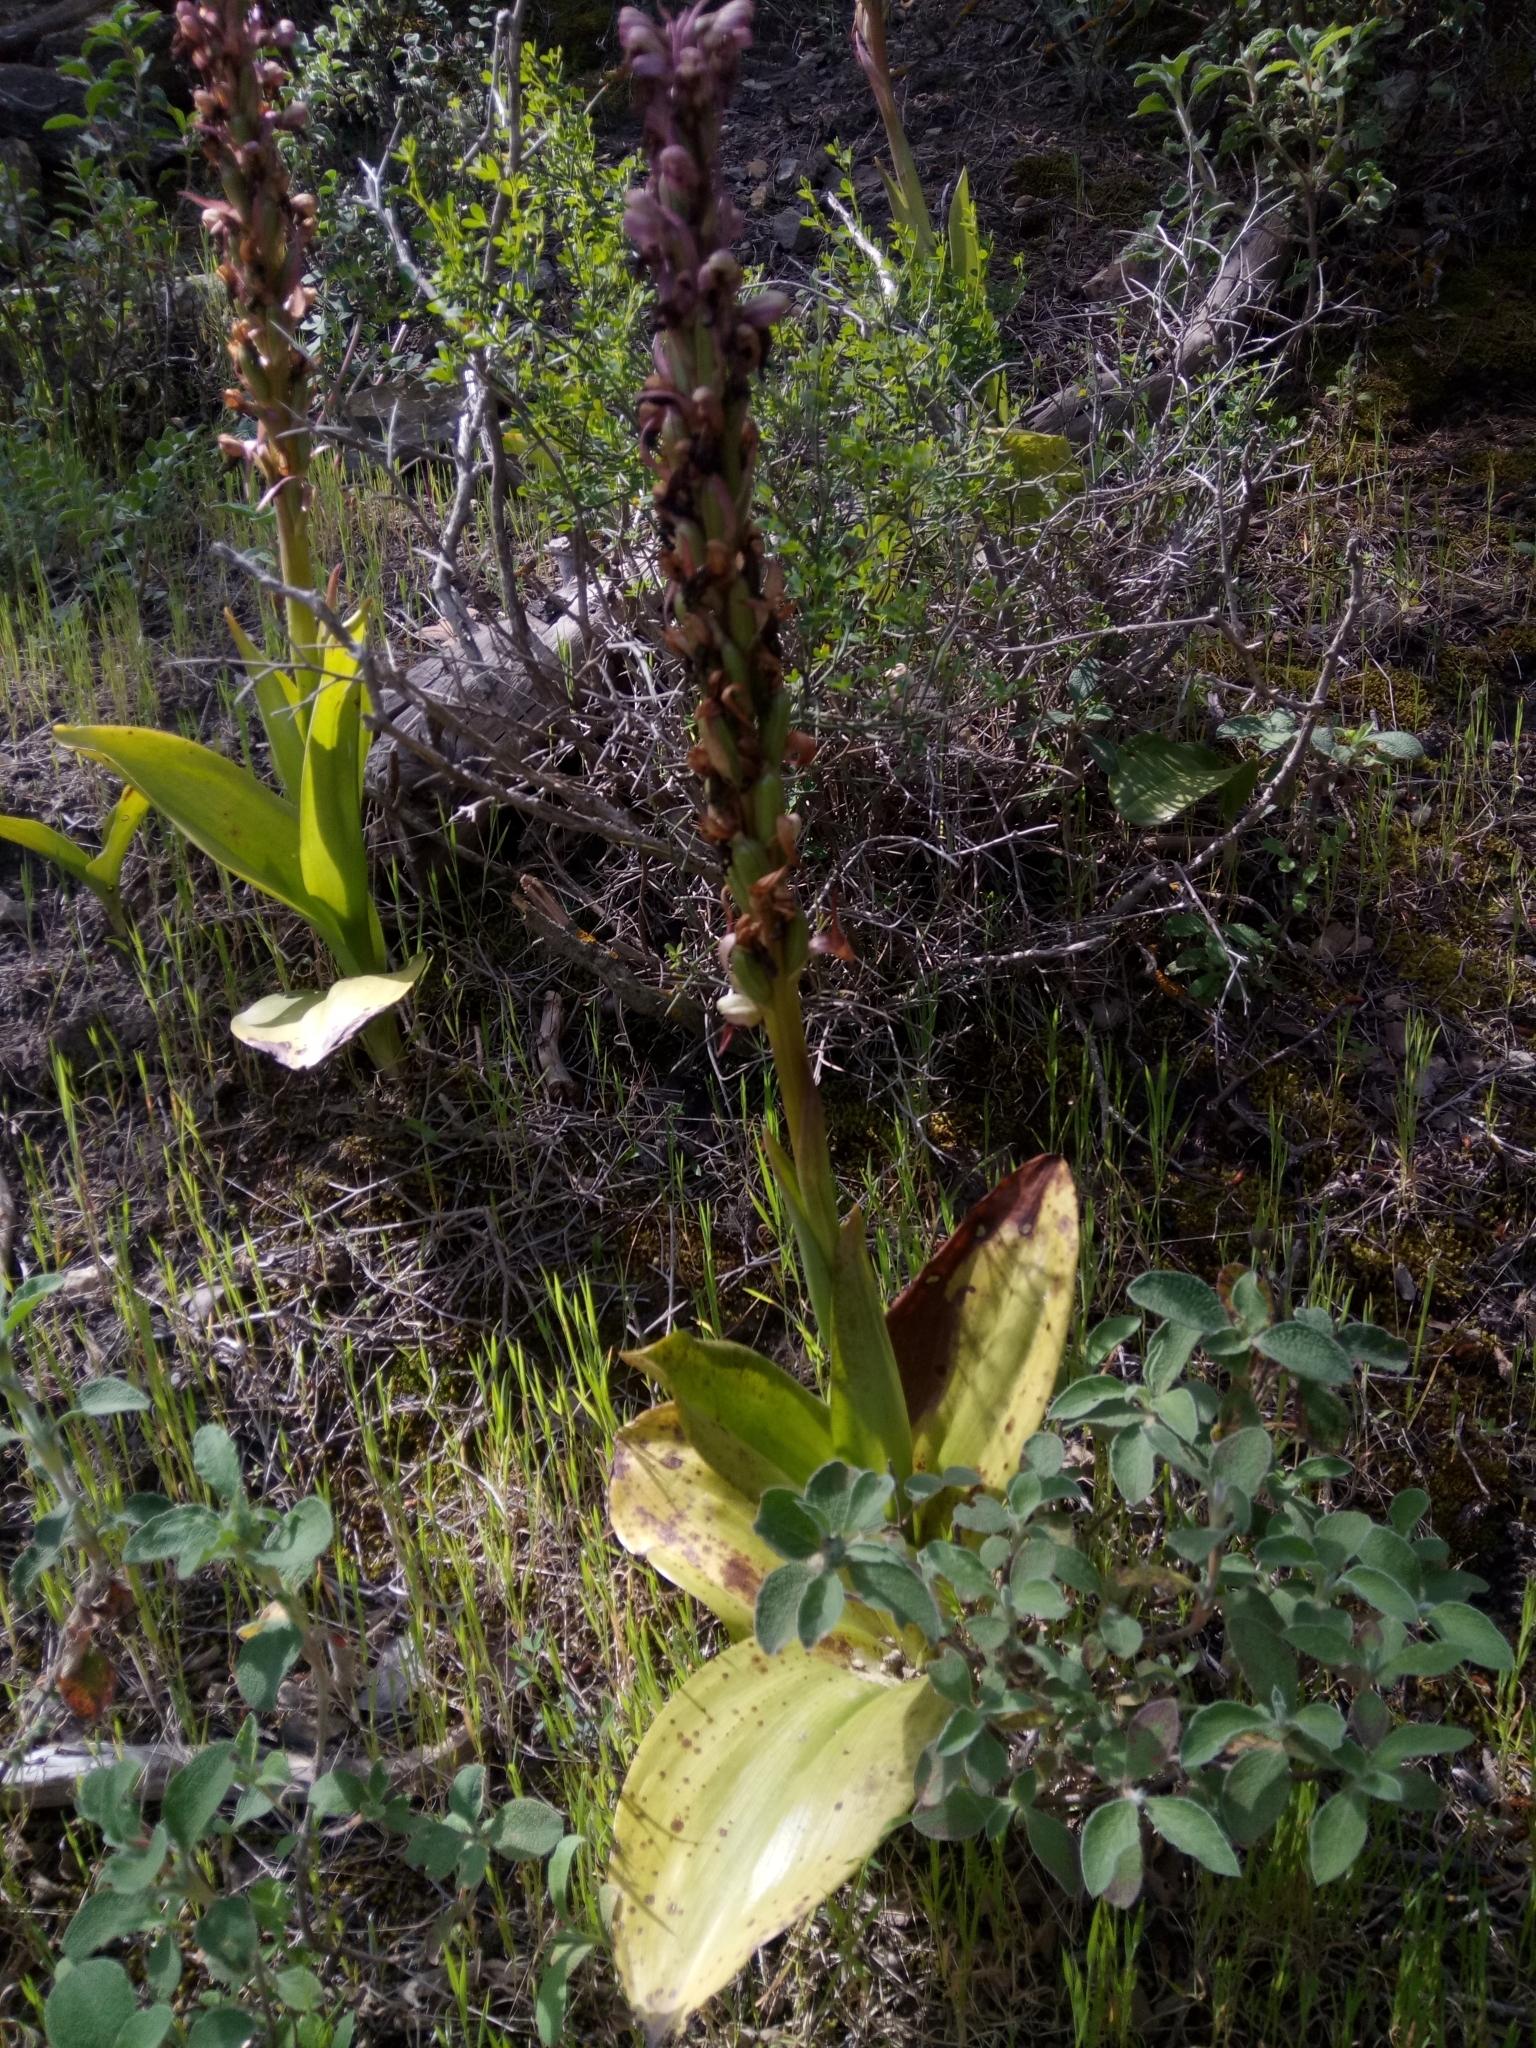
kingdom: Plantae
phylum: Tracheophyta
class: Liliopsida
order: Asparagales
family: Orchidaceae
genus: Himantoglossum
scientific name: Himantoglossum robertianum
